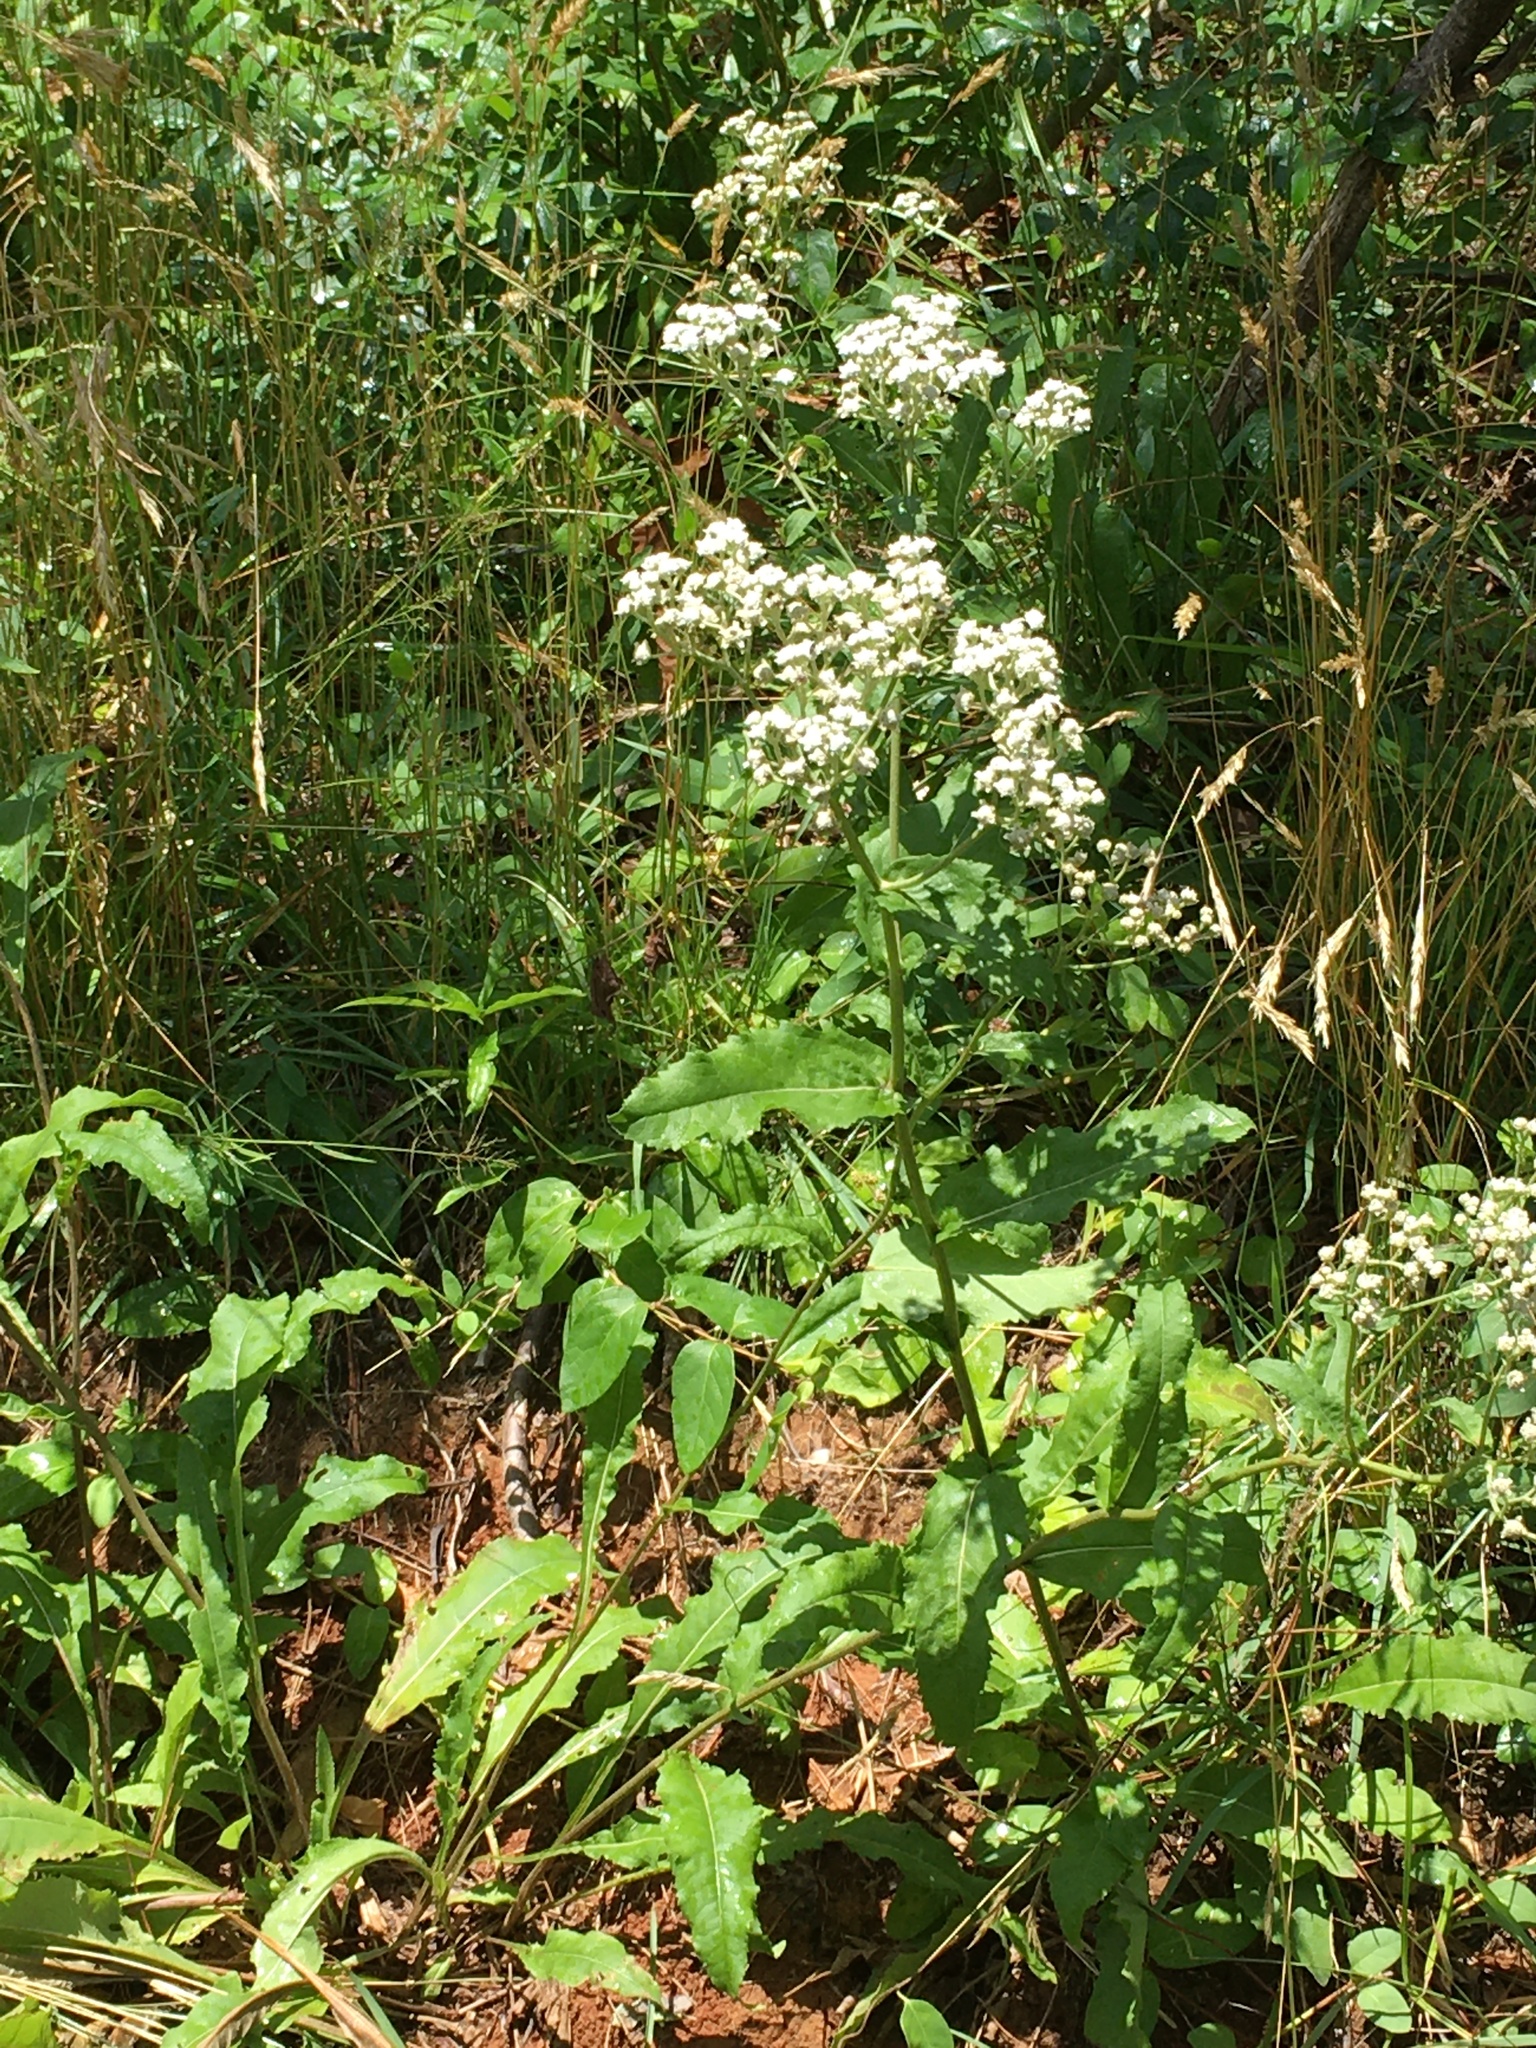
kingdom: Plantae
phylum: Tracheophyta
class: Magnoliopsida
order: Asterales
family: Asteraceae
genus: Parthenium
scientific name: Parthenium integrifolium
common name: American feverfew
